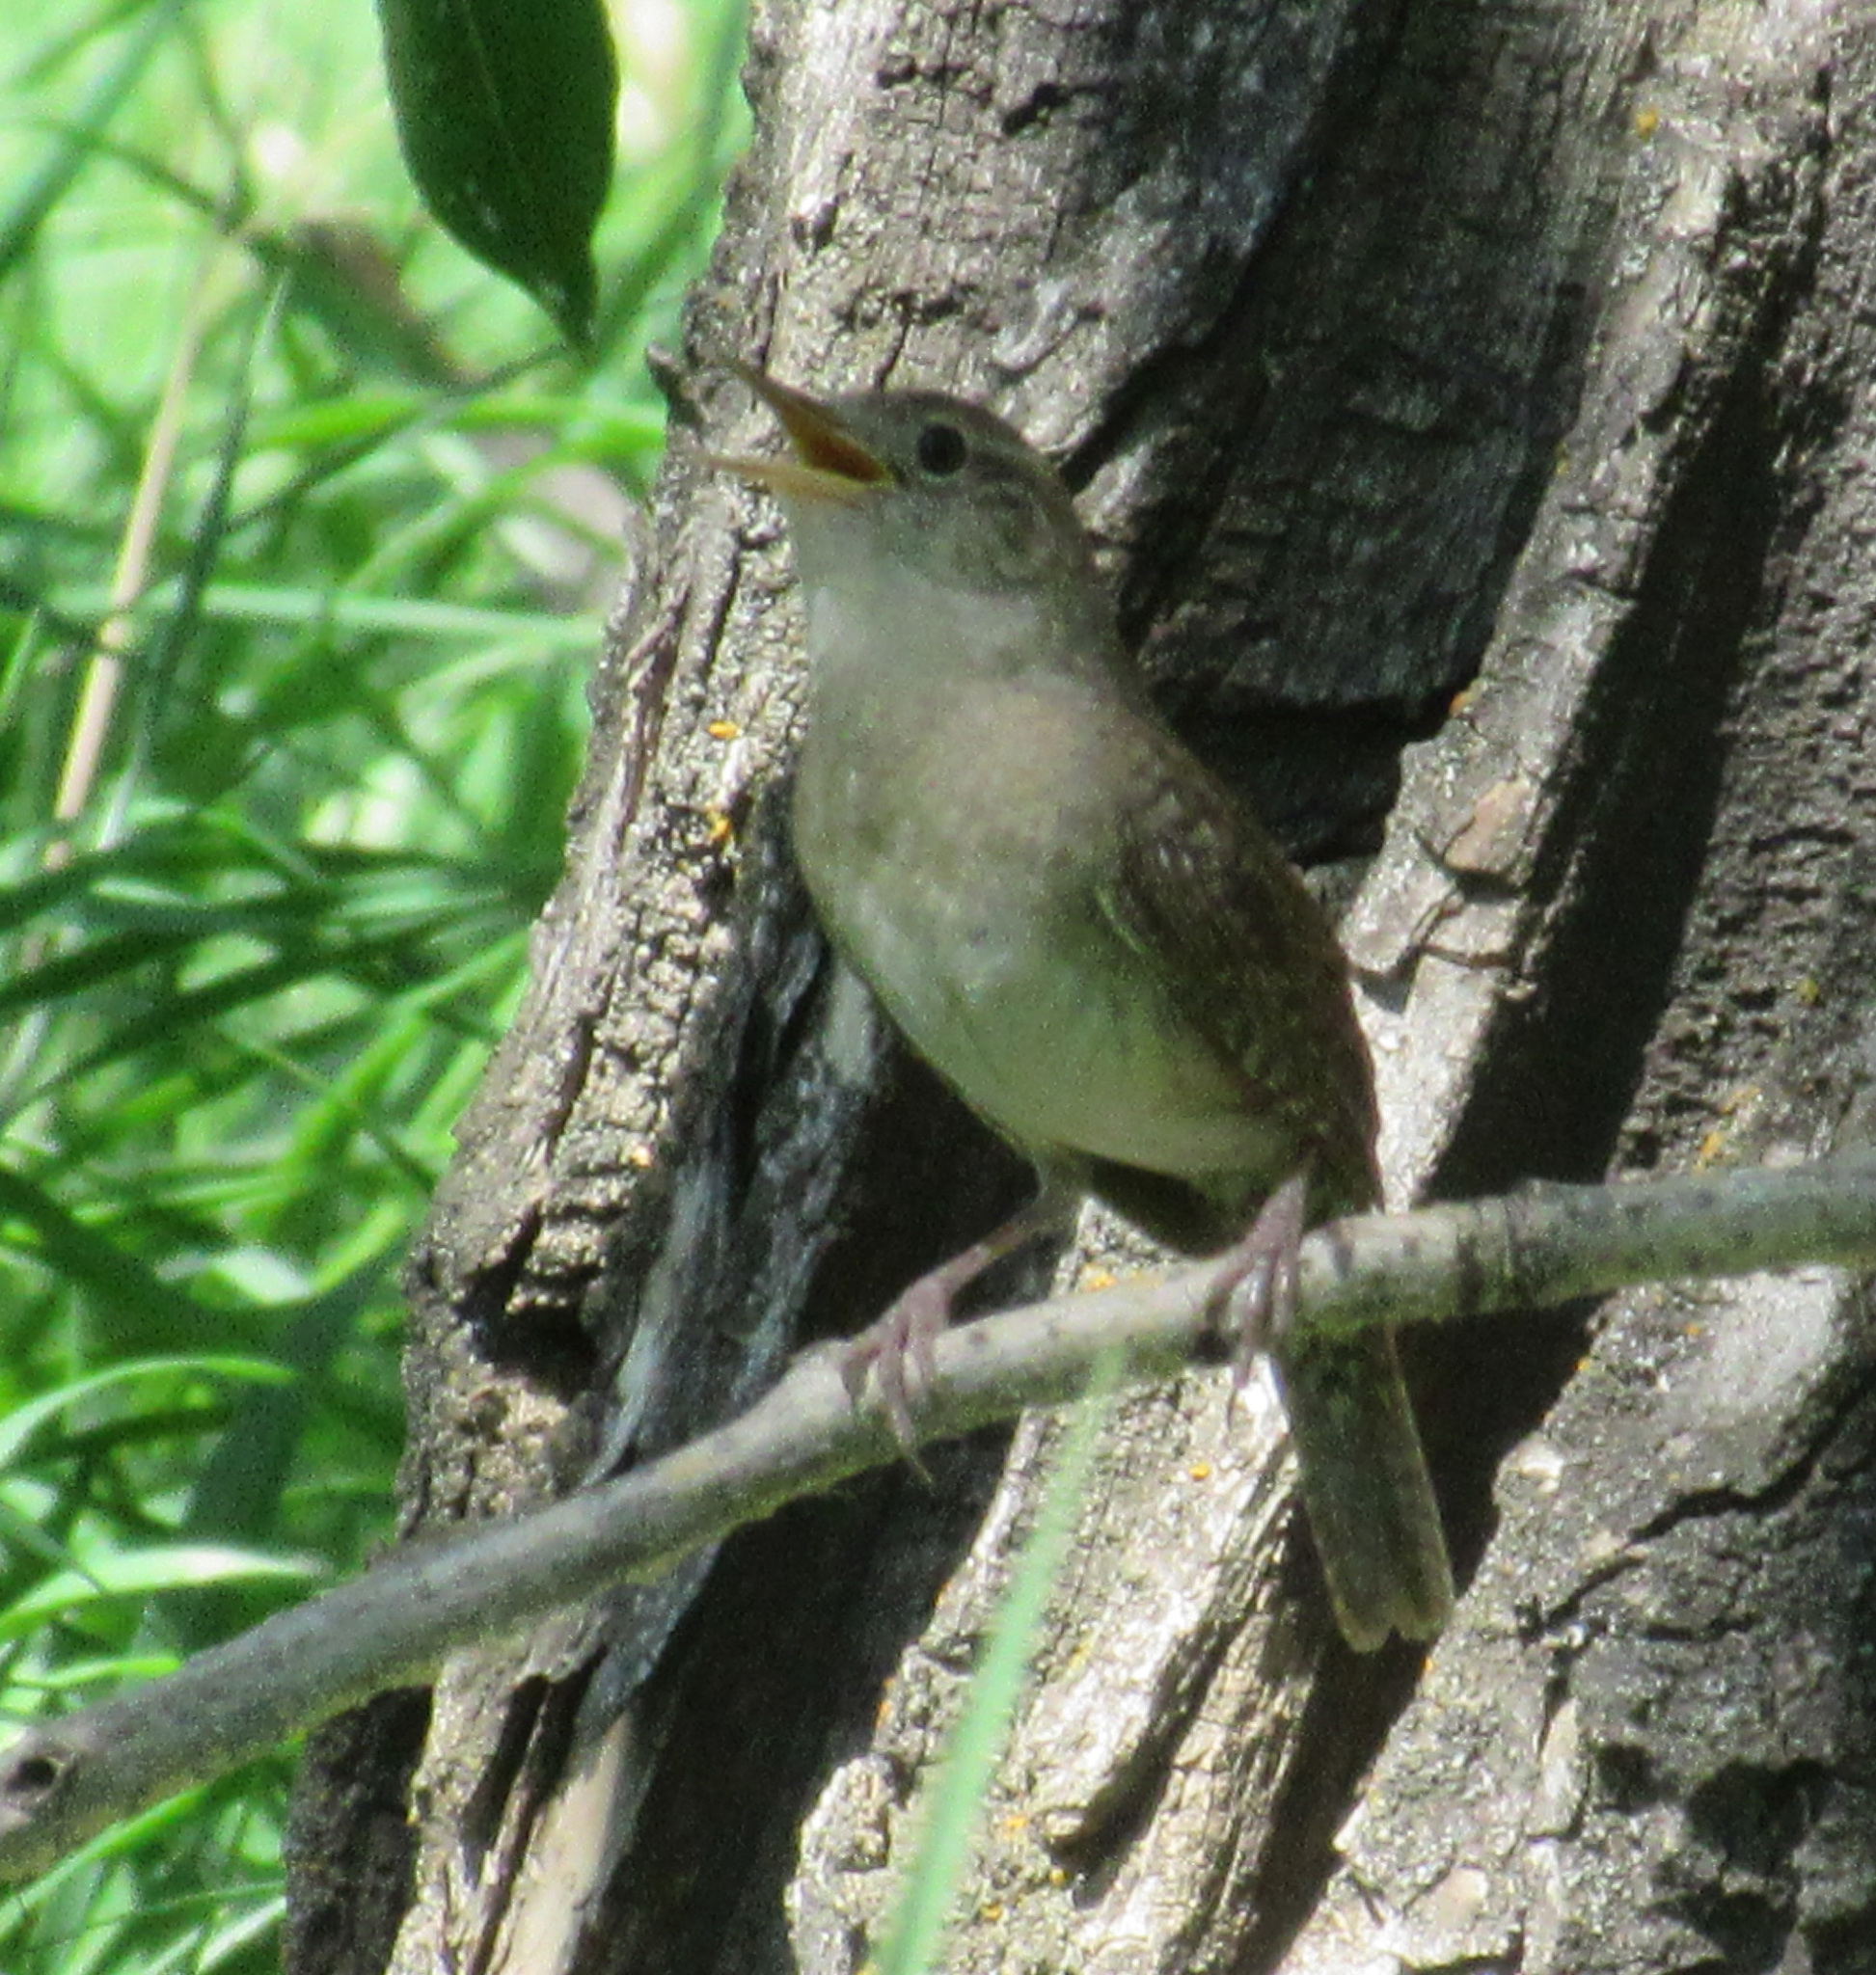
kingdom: Animalia
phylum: Chordata
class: Aves
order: Passeriformes
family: Troglodytidae
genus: Troglodytes
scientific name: Troglodytes aedon
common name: House wren
